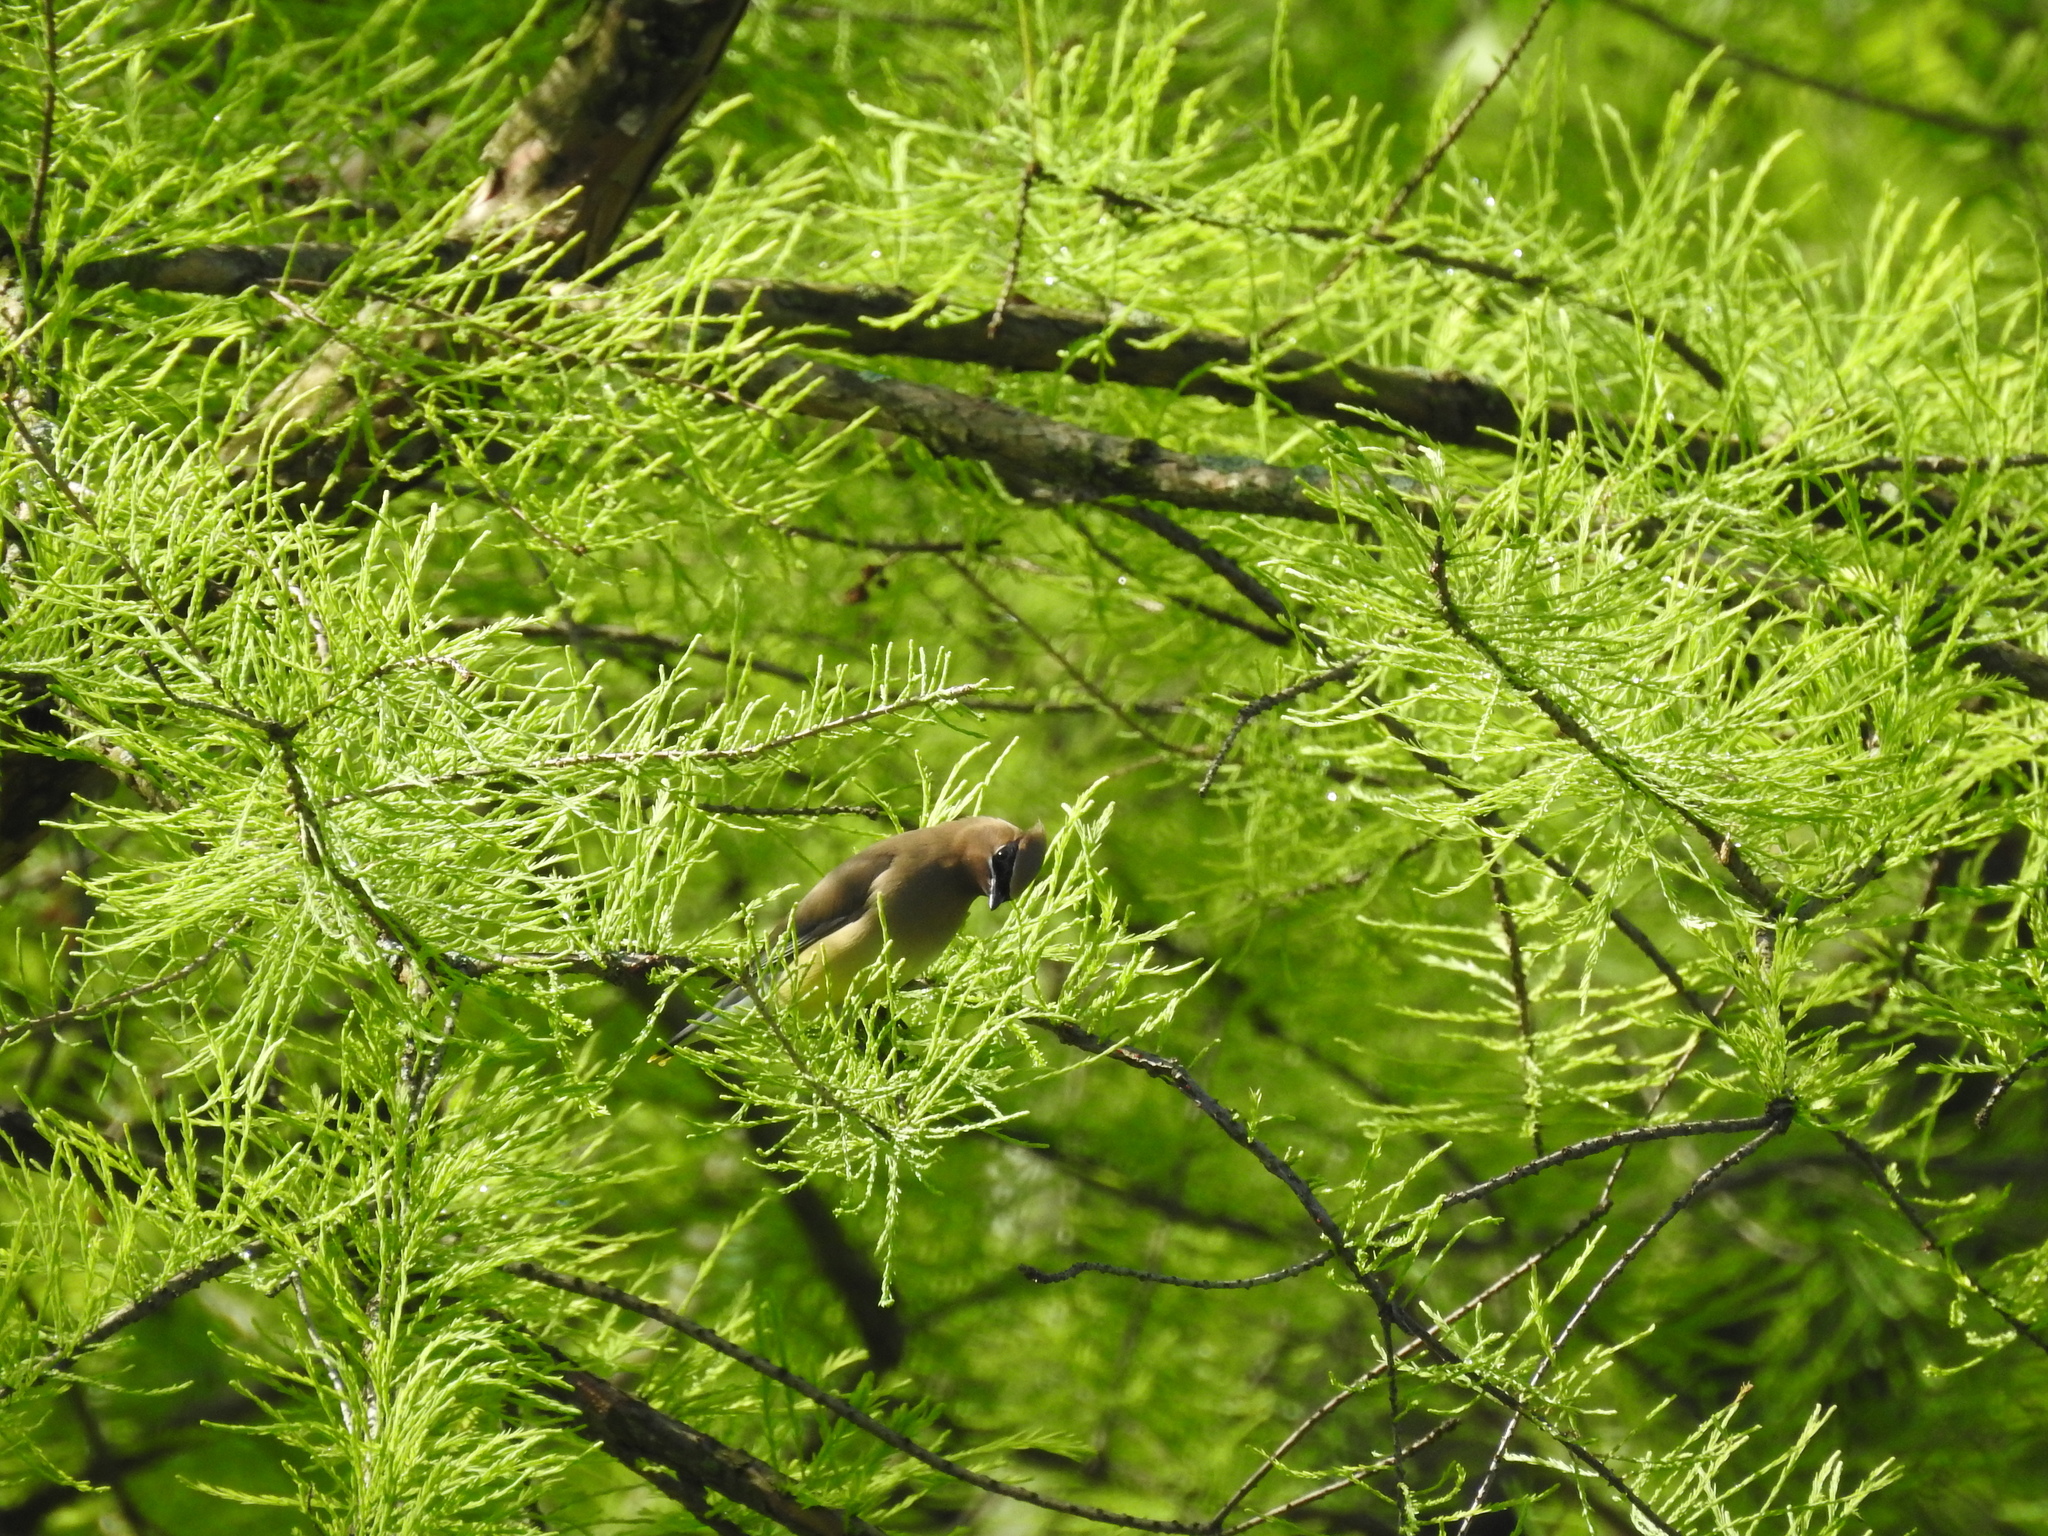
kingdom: Animalia
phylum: Chordata
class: Aves
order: Passeriformes
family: Bombycillidae
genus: Bombycilla
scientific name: Bombycilla cedrorum
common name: Cedar waxwing
